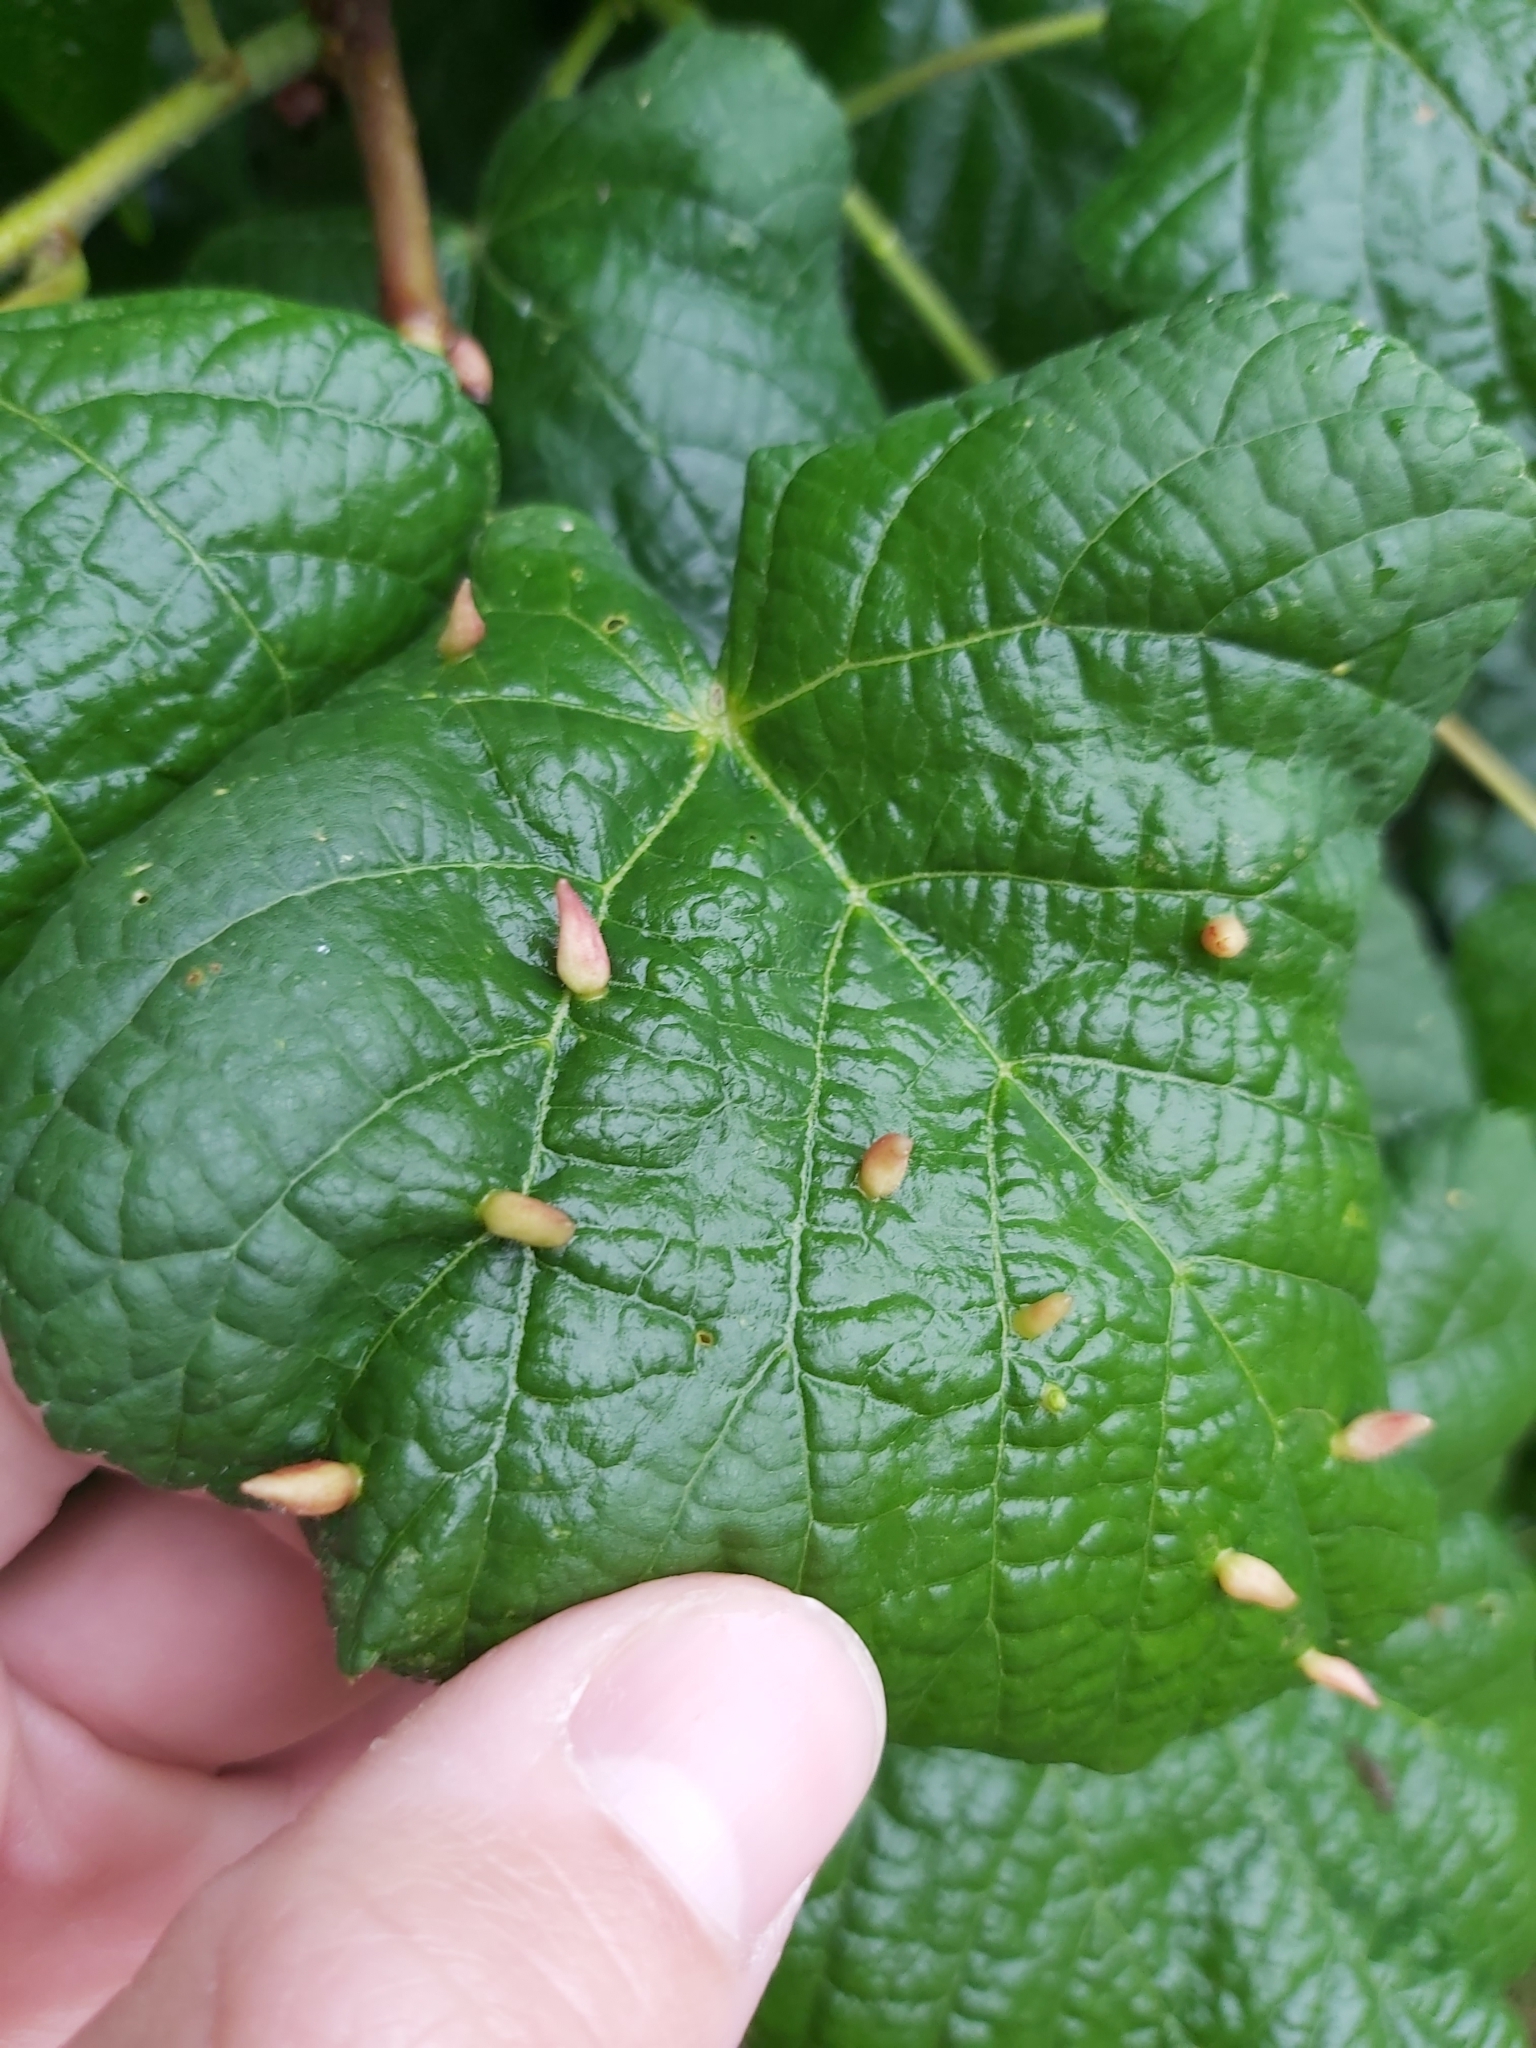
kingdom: Animalia
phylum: Arthropoda
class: Arachnida
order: Trombidiformes
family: Eriophyidae
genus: Eriophyes
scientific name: Eriophyes tiliae
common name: Red nail gall mite
